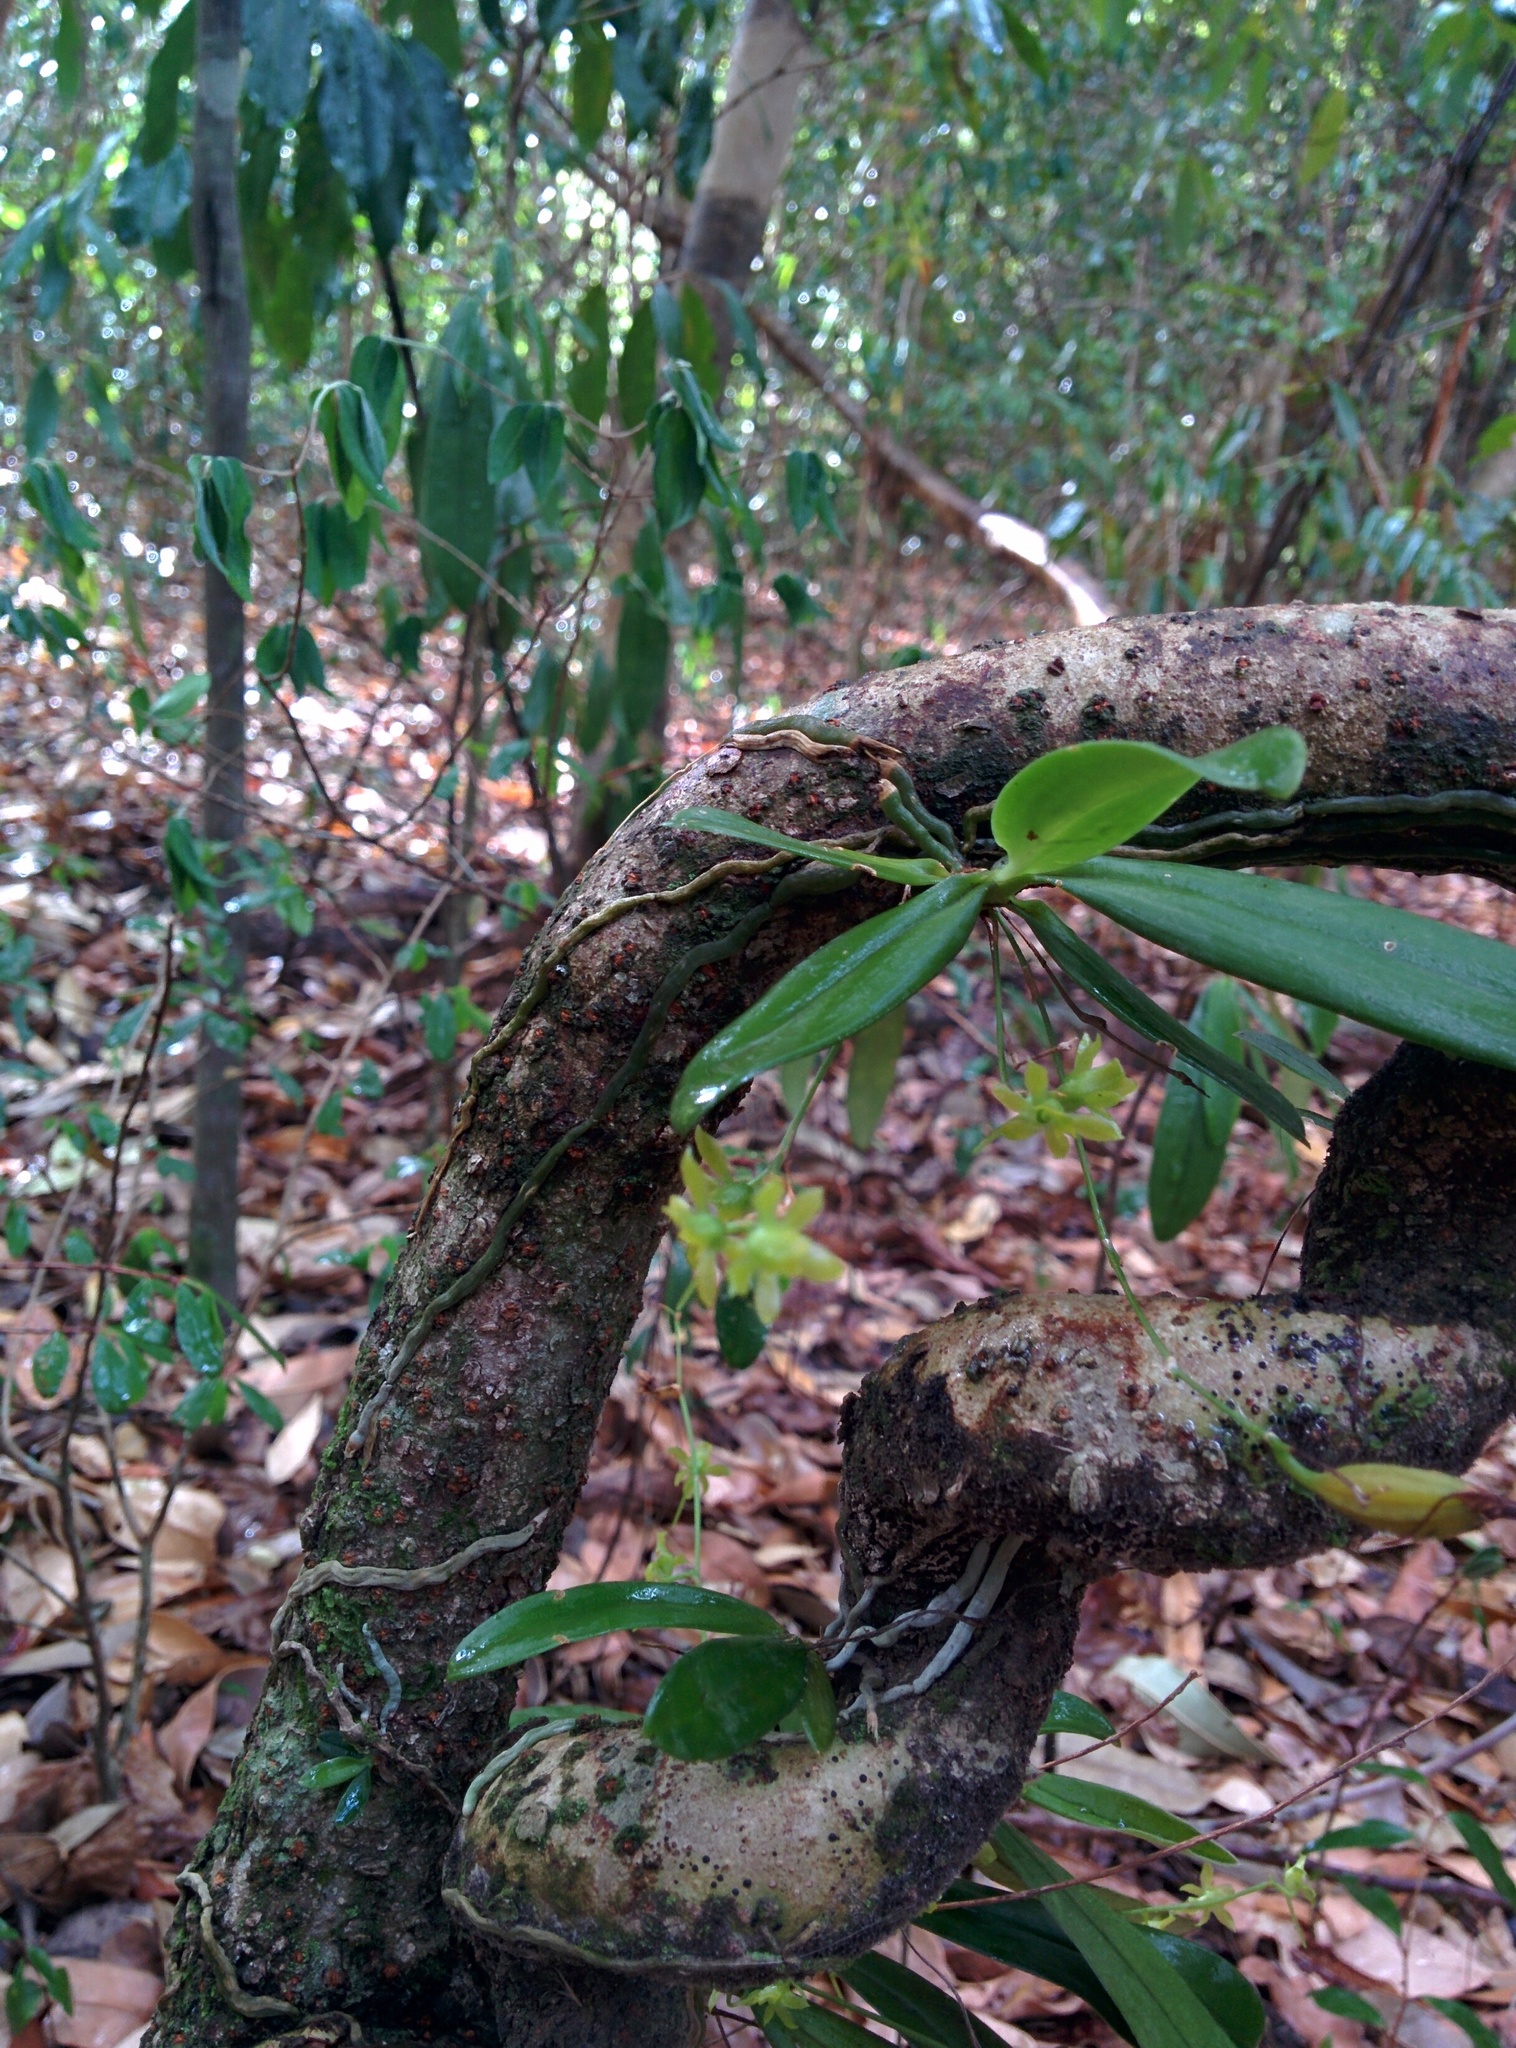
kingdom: Plantae
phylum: Tracheophyta
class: Liliopsida
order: Asparagales
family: Orchidaceae
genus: Lemurella
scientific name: Lemurella culicifera
